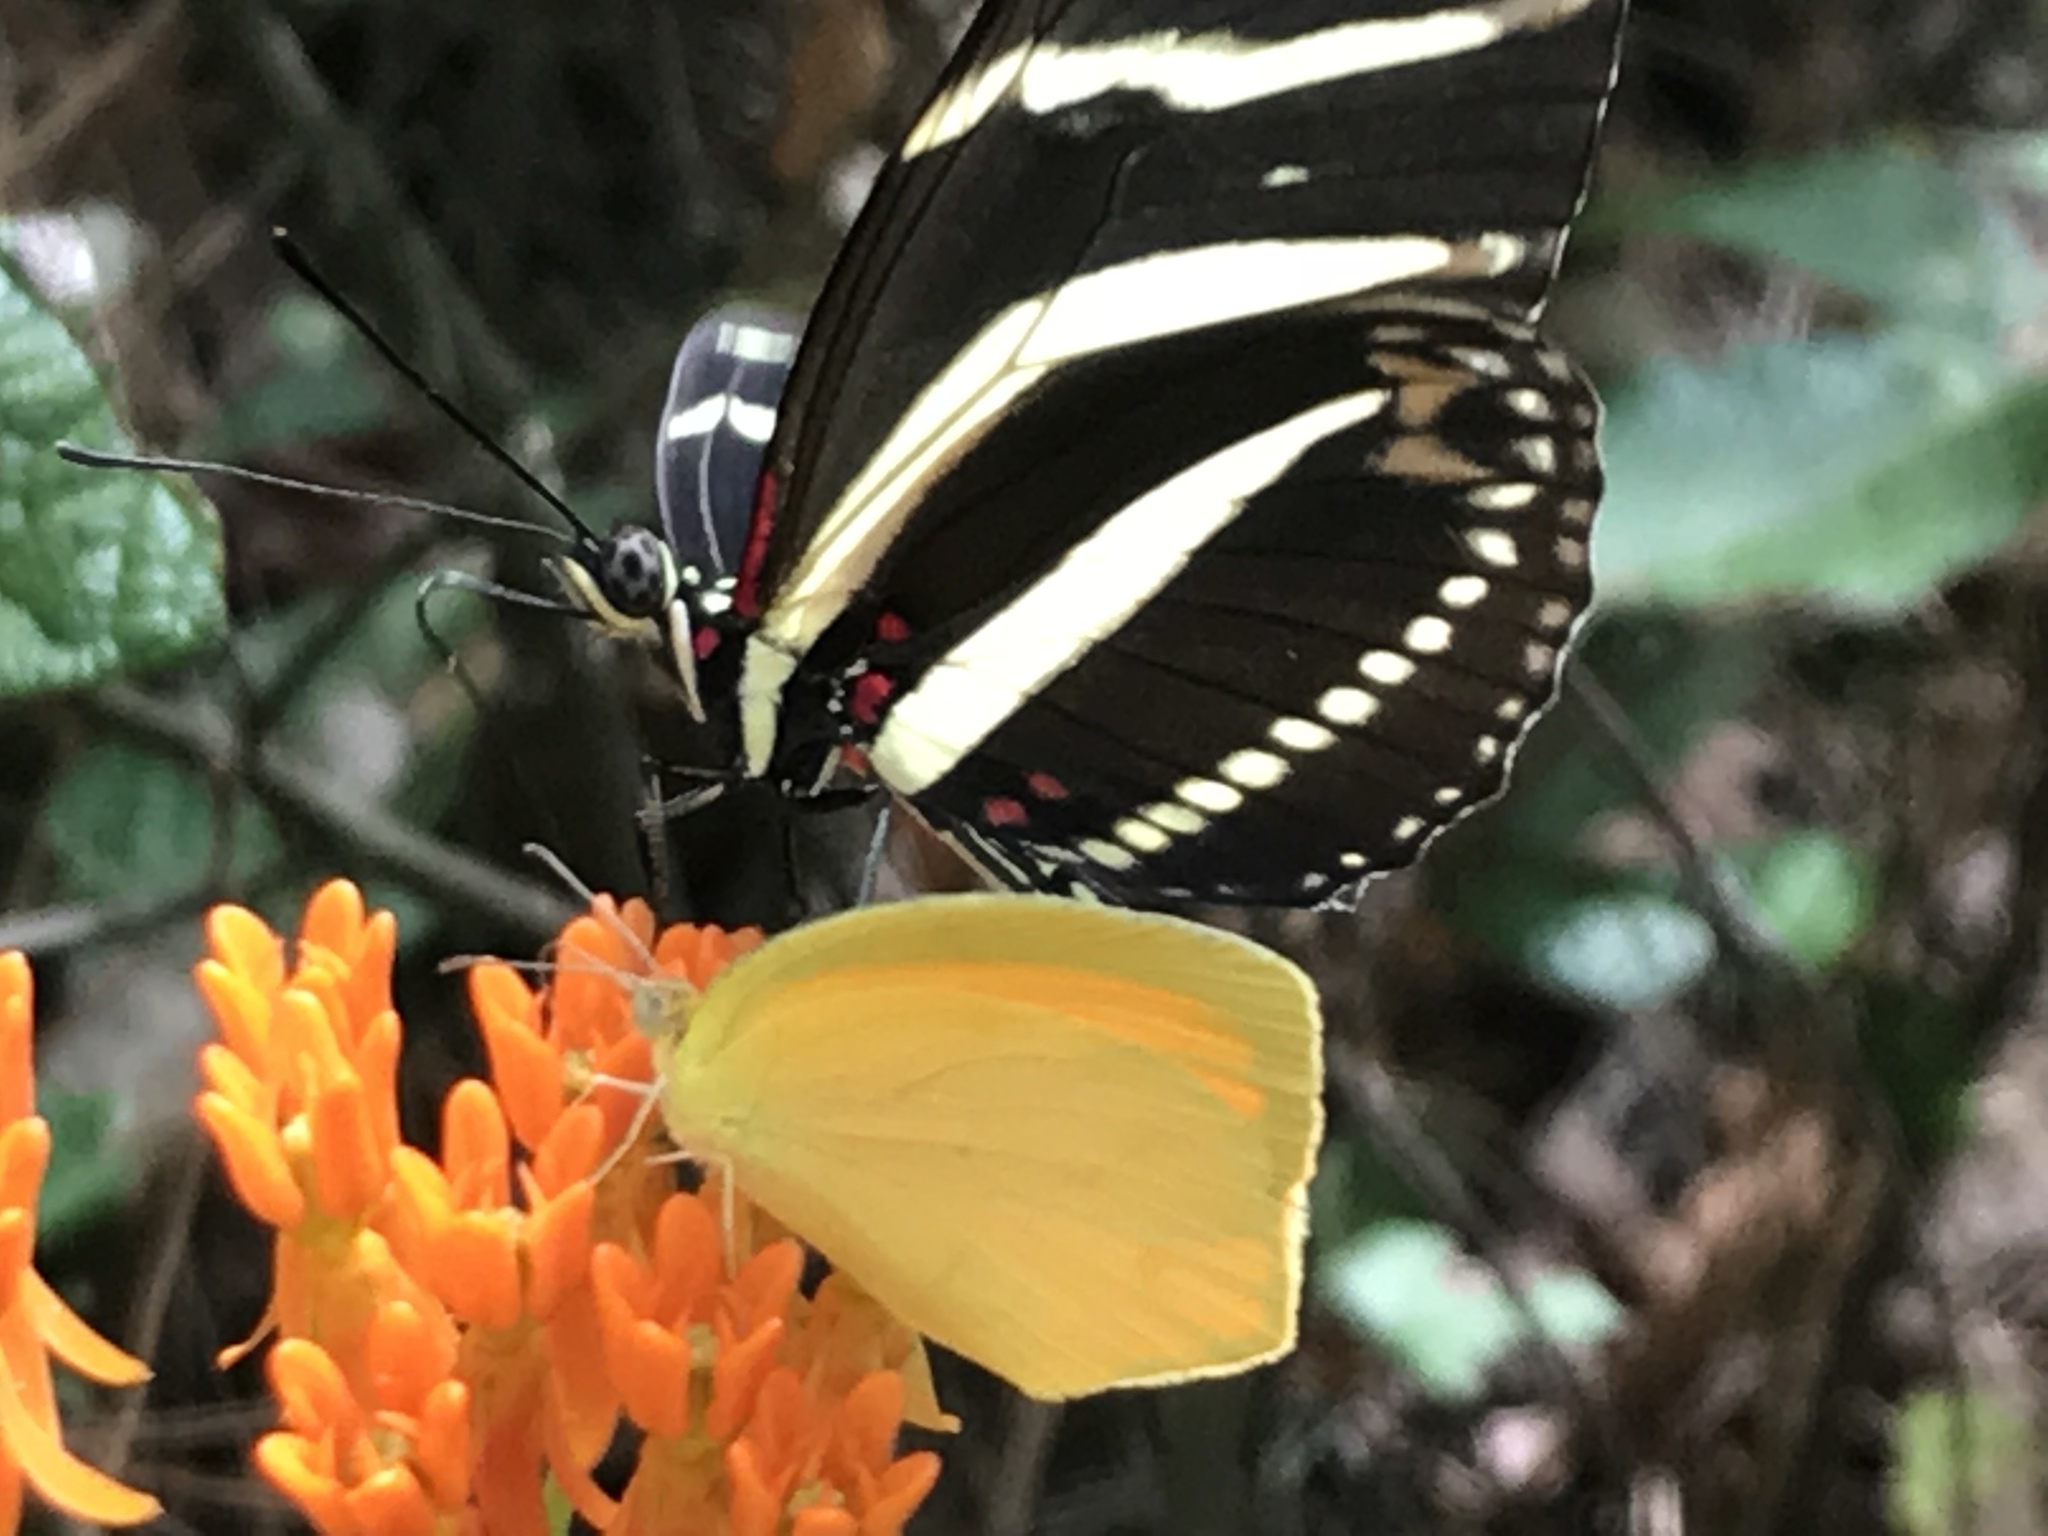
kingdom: Animalia
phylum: Arthropoda
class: Insecta
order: Lepidoptera
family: Nymphalidae
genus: Heliconius
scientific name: Heliconius charithonia
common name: Zebra long wing
